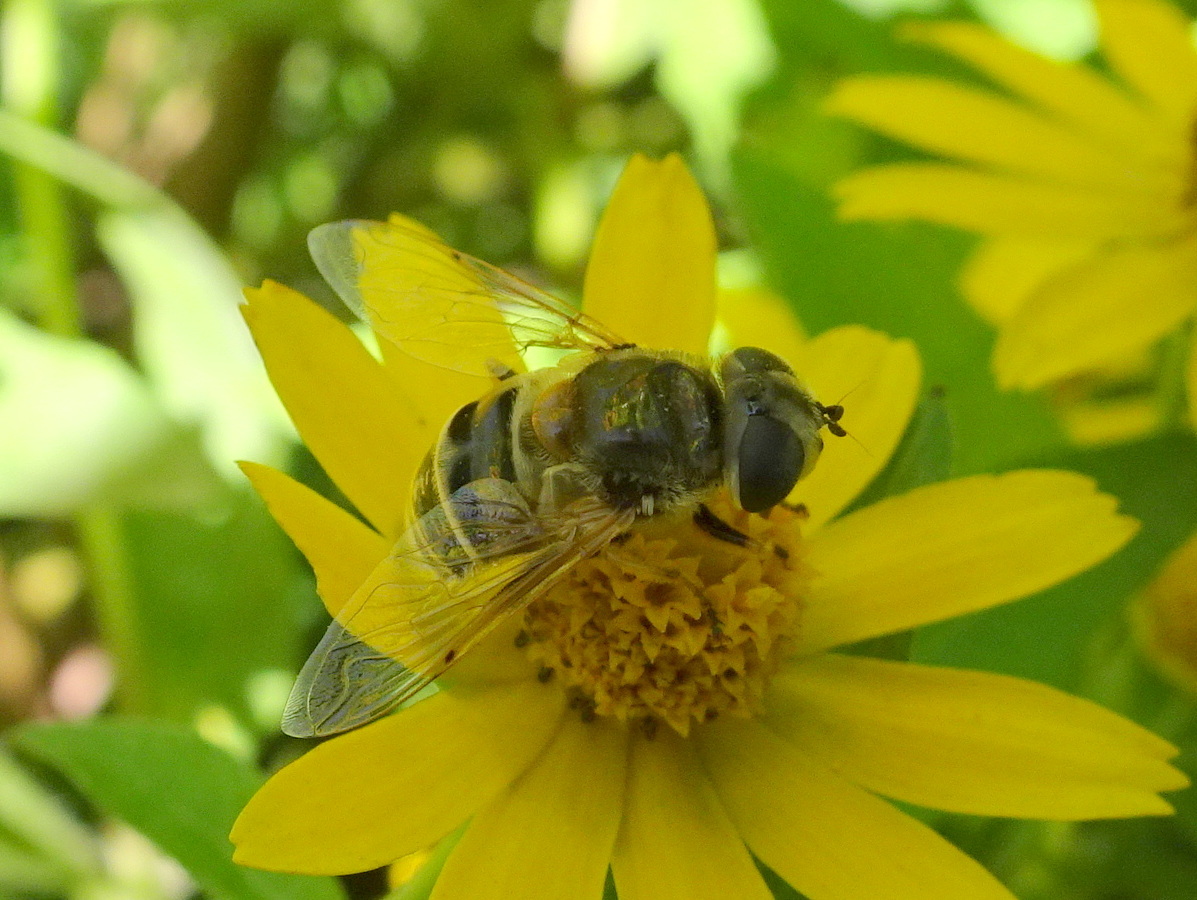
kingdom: Animalia
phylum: Arthropoda
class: Insecta
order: Diptera
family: Syrphidae
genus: Eristalis
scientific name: Eristalis stipator
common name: Yellow-shouldered drone fly
